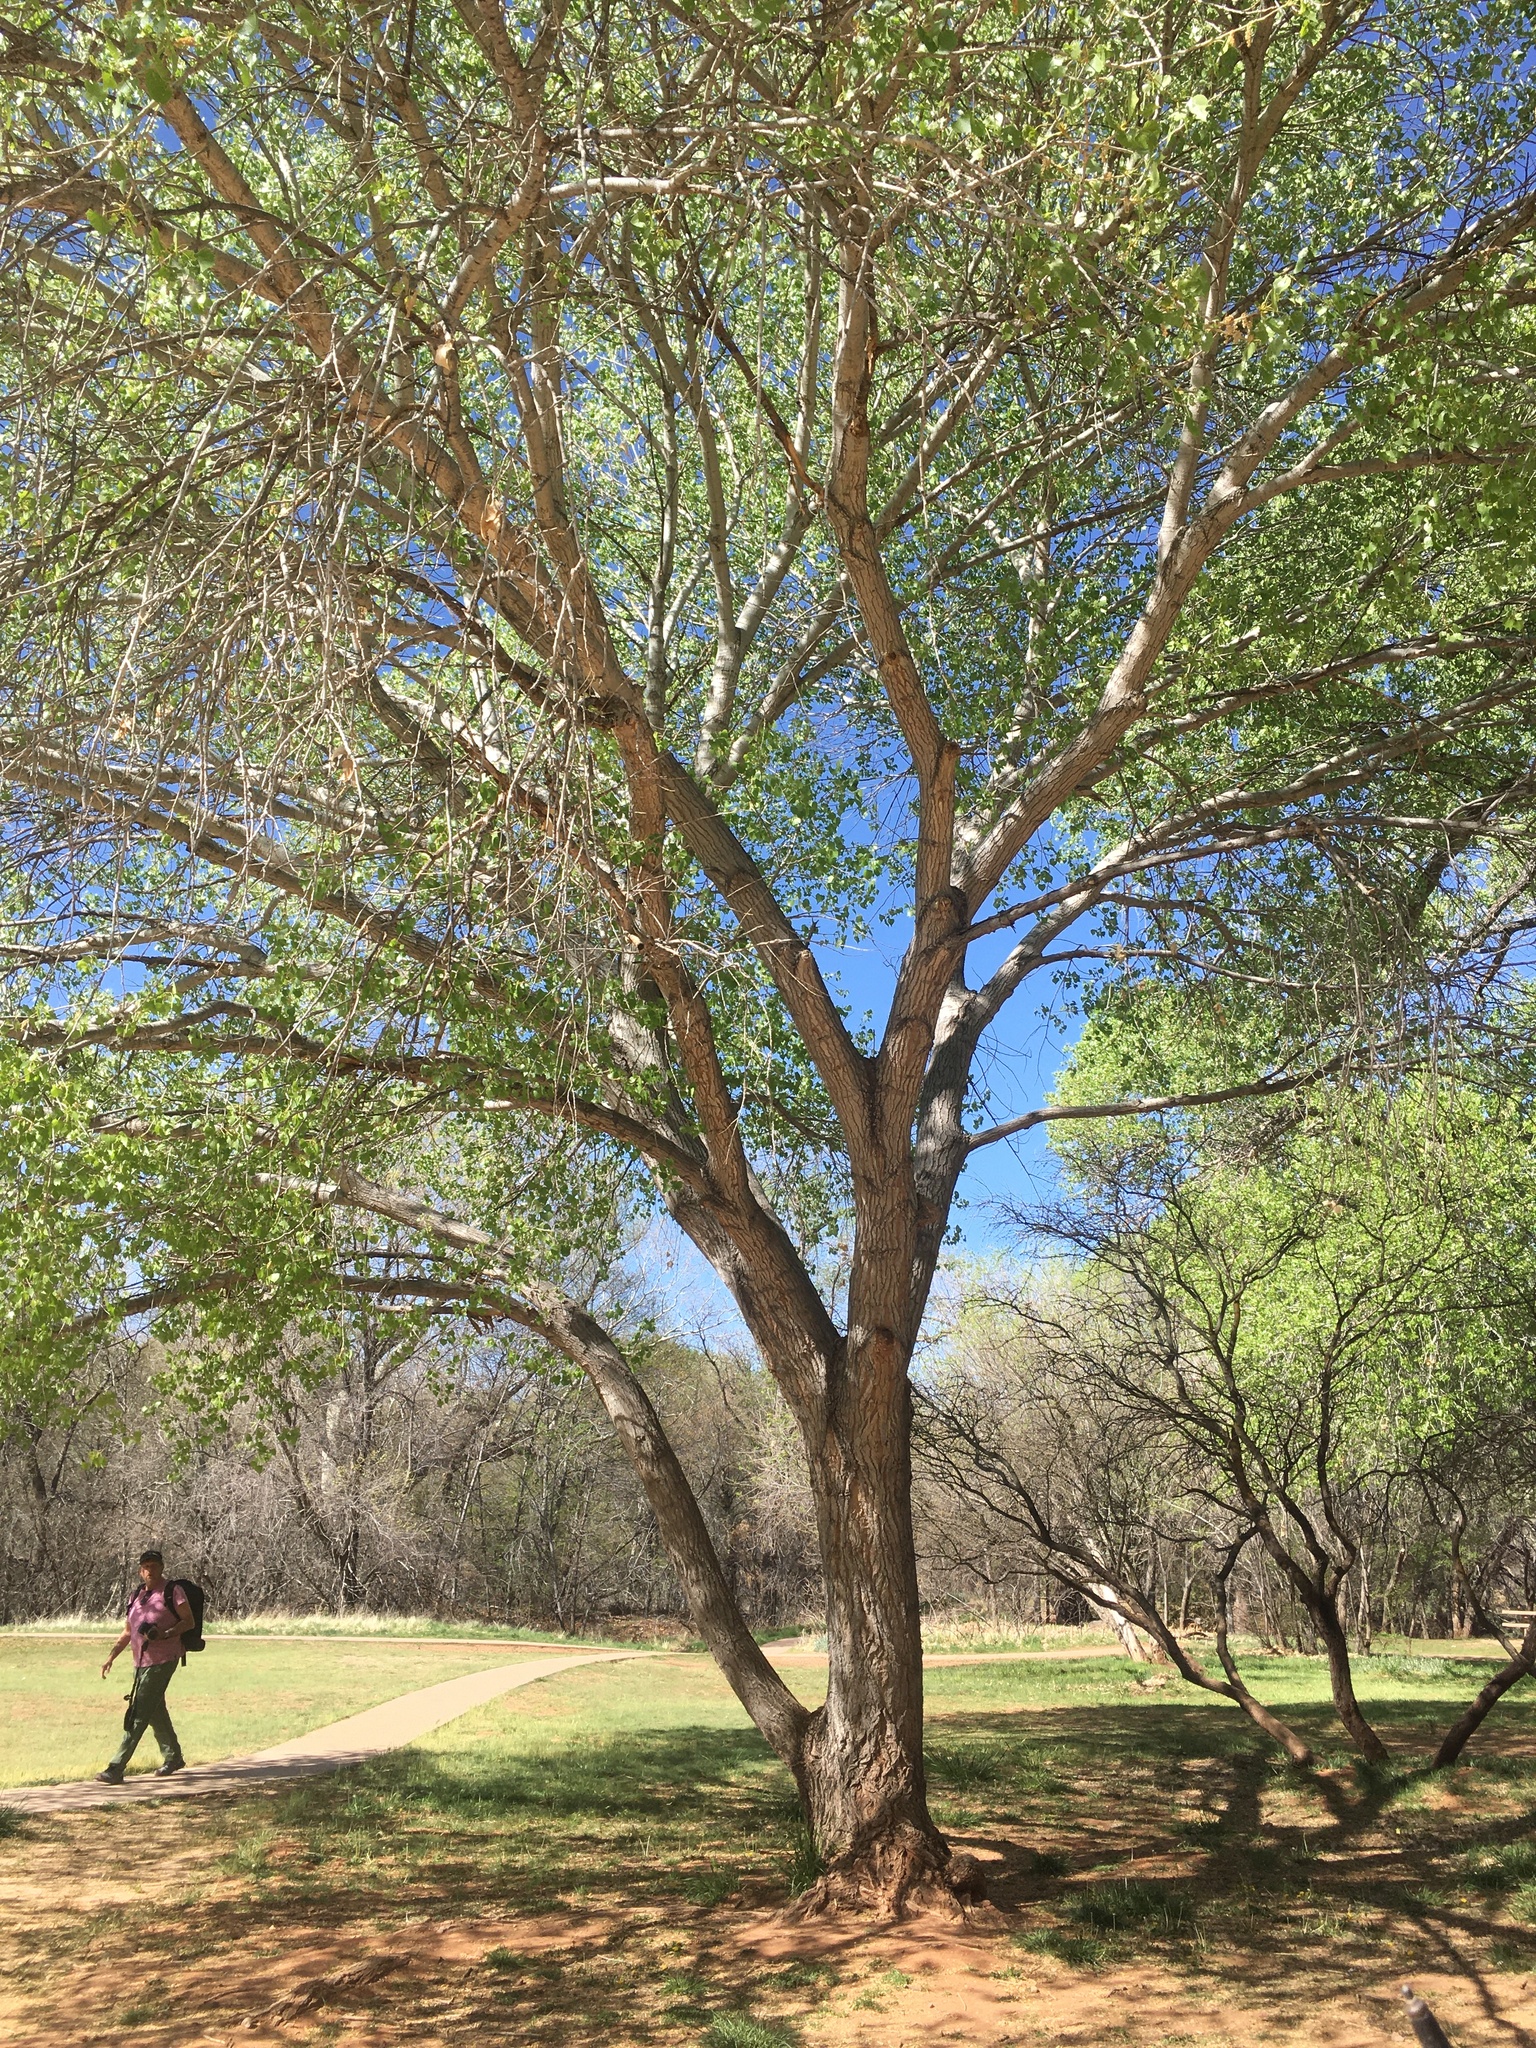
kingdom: Plantae
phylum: Tracheophyta
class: Magnoliopsida
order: Malpighiales
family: Salicaceae
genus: Populus
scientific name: Populus fremontii
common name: Fremont's cottonwood
